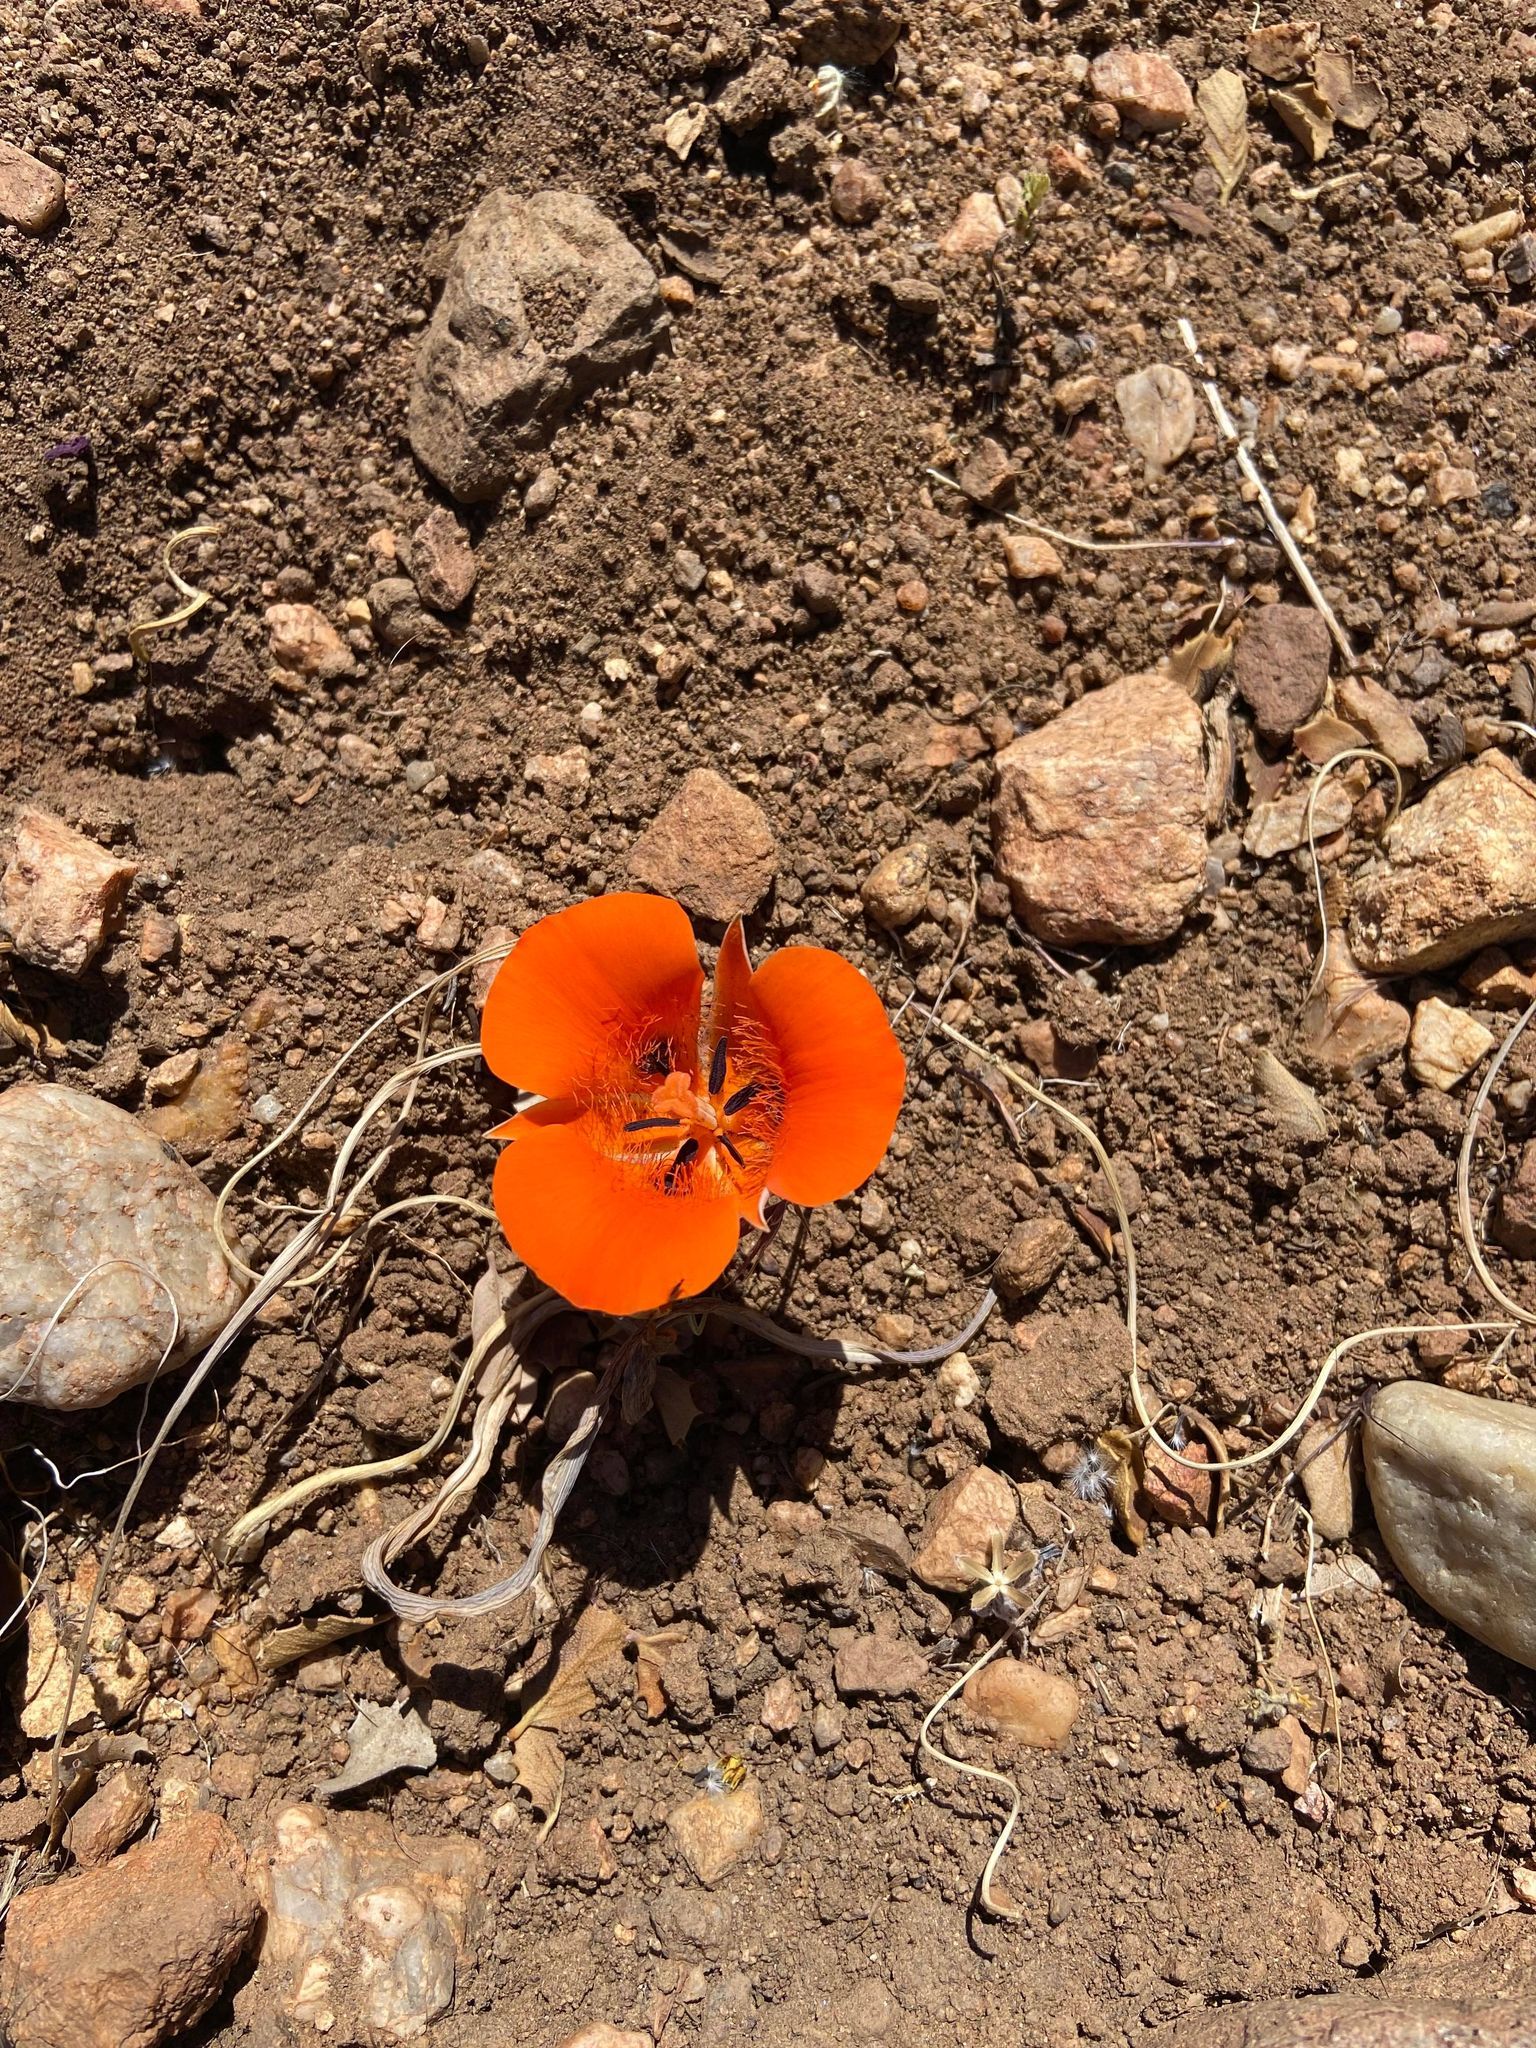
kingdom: Plantae
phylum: Tracheophyta
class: Liliopsida
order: Liliales
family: Liliaceae
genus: Calochortus
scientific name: Calochortus kennedyi
